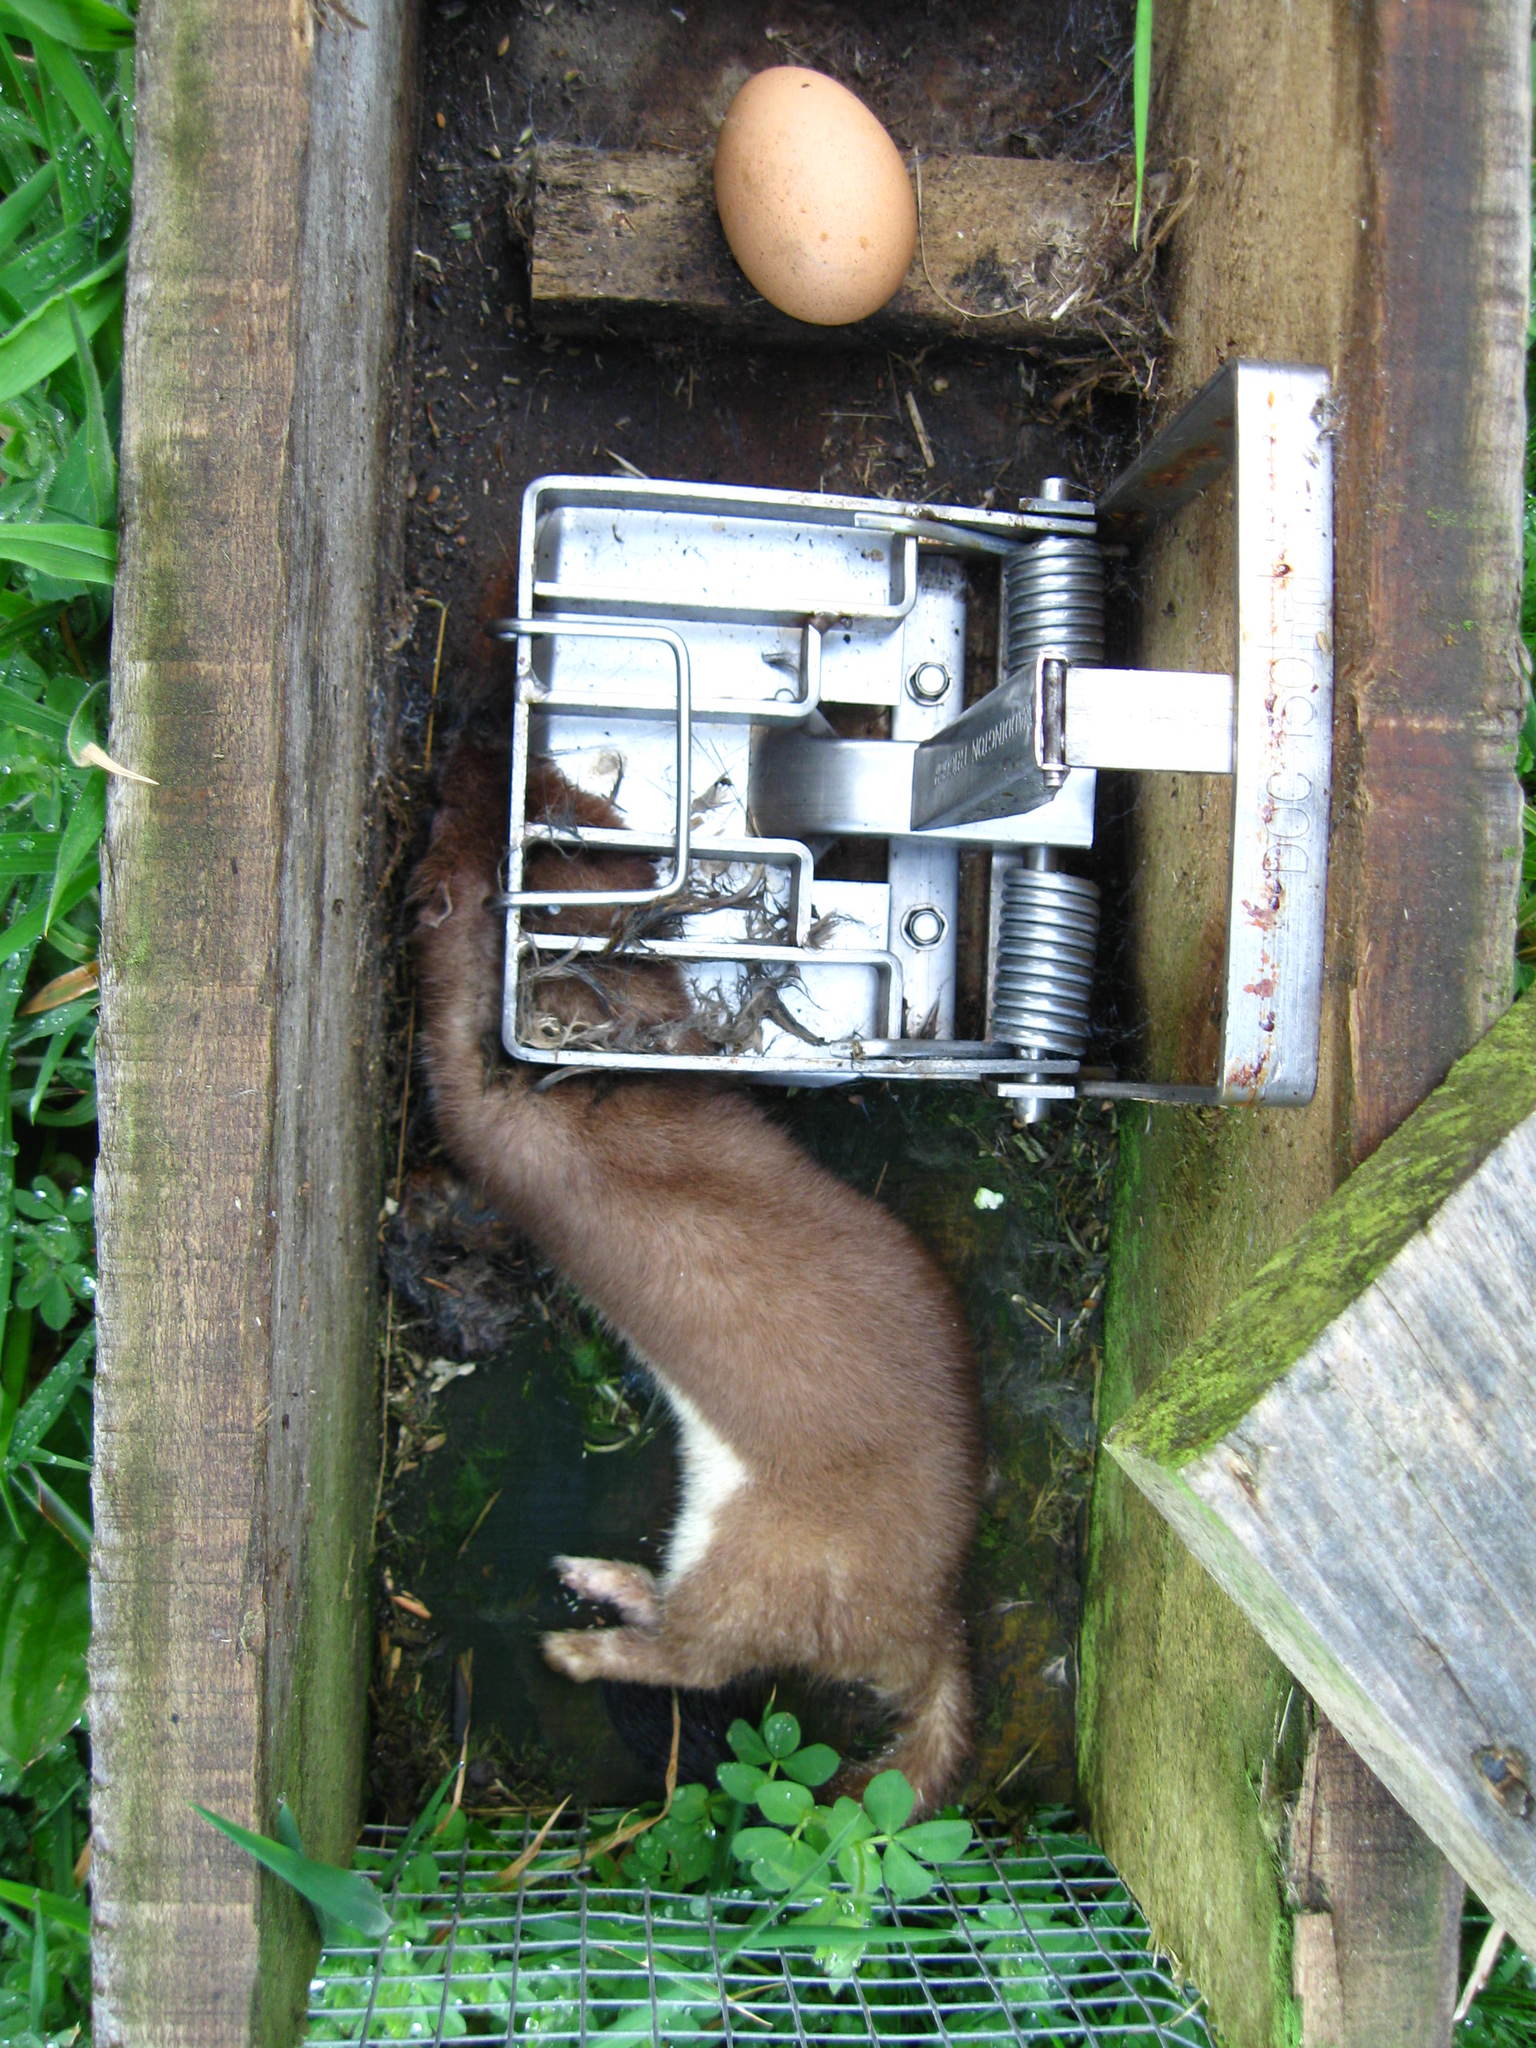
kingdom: Animalia
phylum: Chordata
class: Mammalia
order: Carnivora
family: Mustelidae
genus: Mustela
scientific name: Mustela erminea
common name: Stoat
